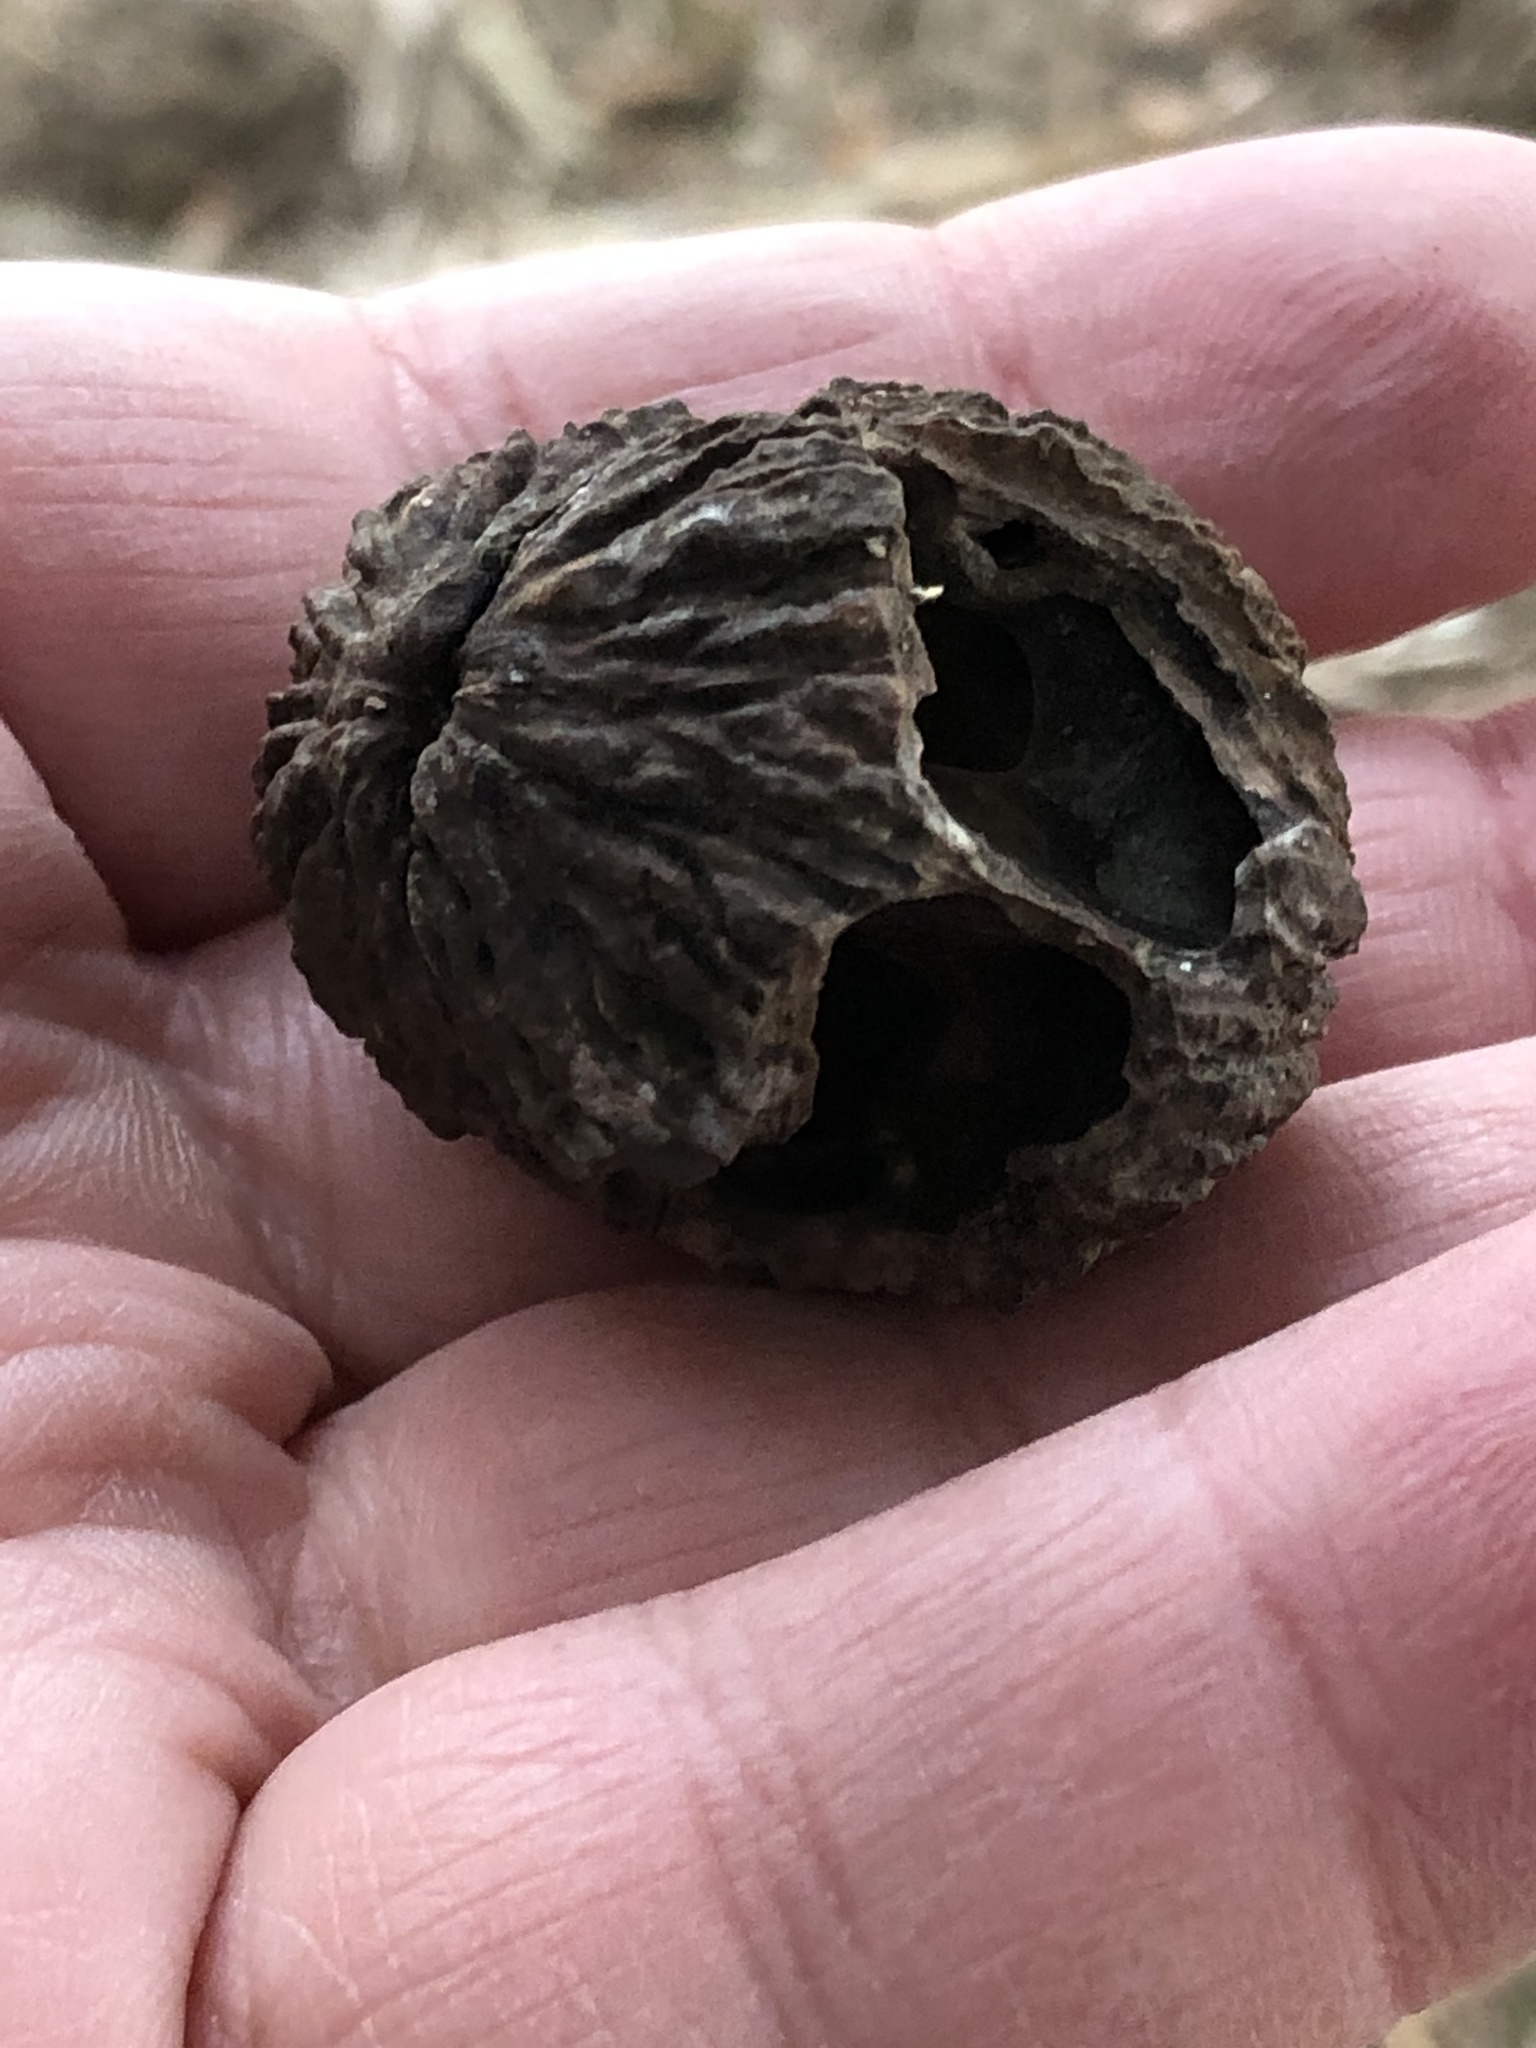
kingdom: Plantae
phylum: Tracheophyta
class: Magnoliopsida
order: Fagales
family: Juglandaceae
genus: Juglans
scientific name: Juglans nigra
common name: Black walnut
